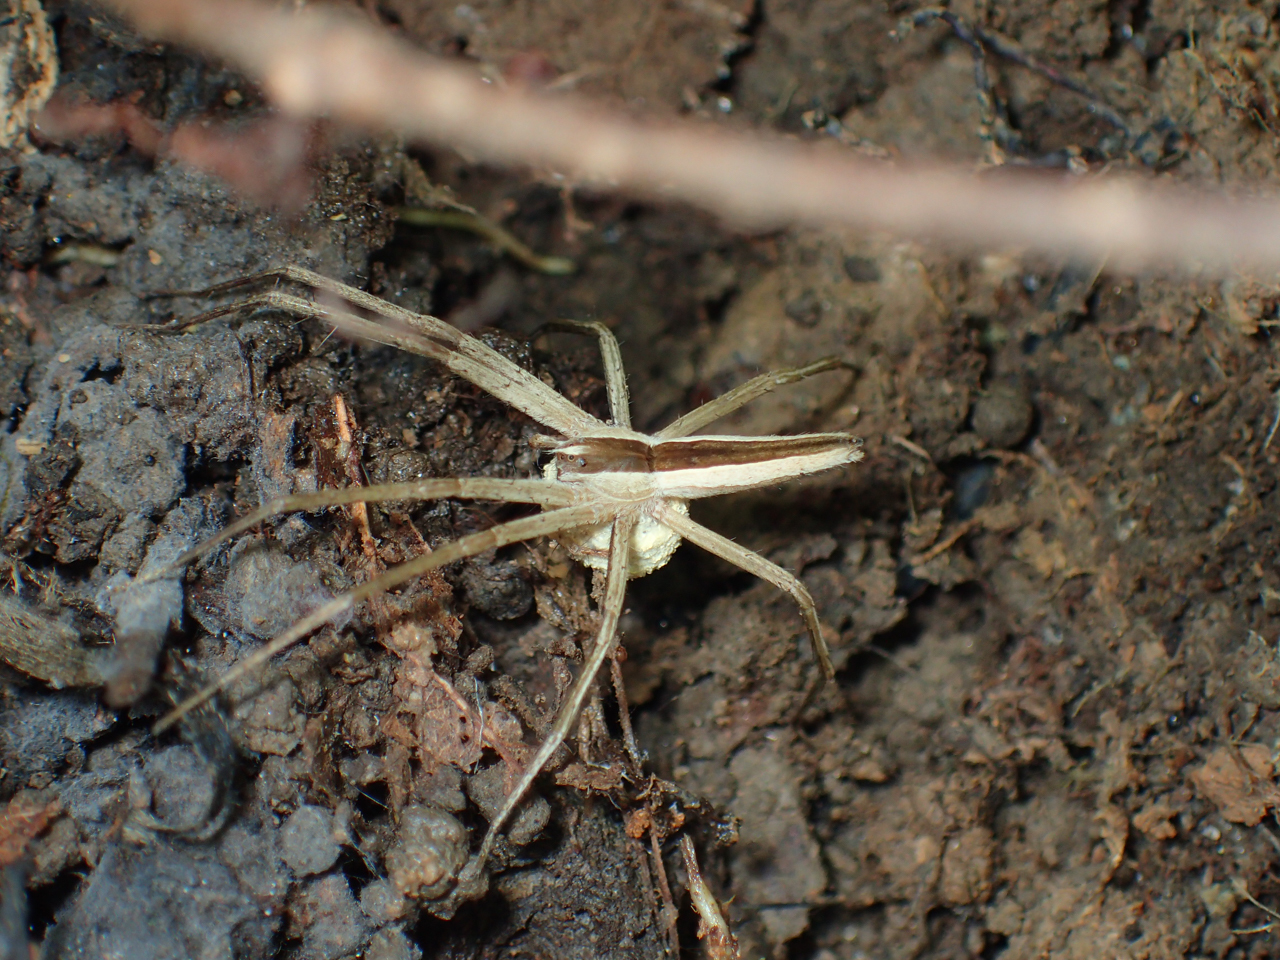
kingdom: Animalia
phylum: Arthropoda
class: Arachnida
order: Araneae
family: Pisauridae
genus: Pisaurina
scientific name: Pisaurina dubia
